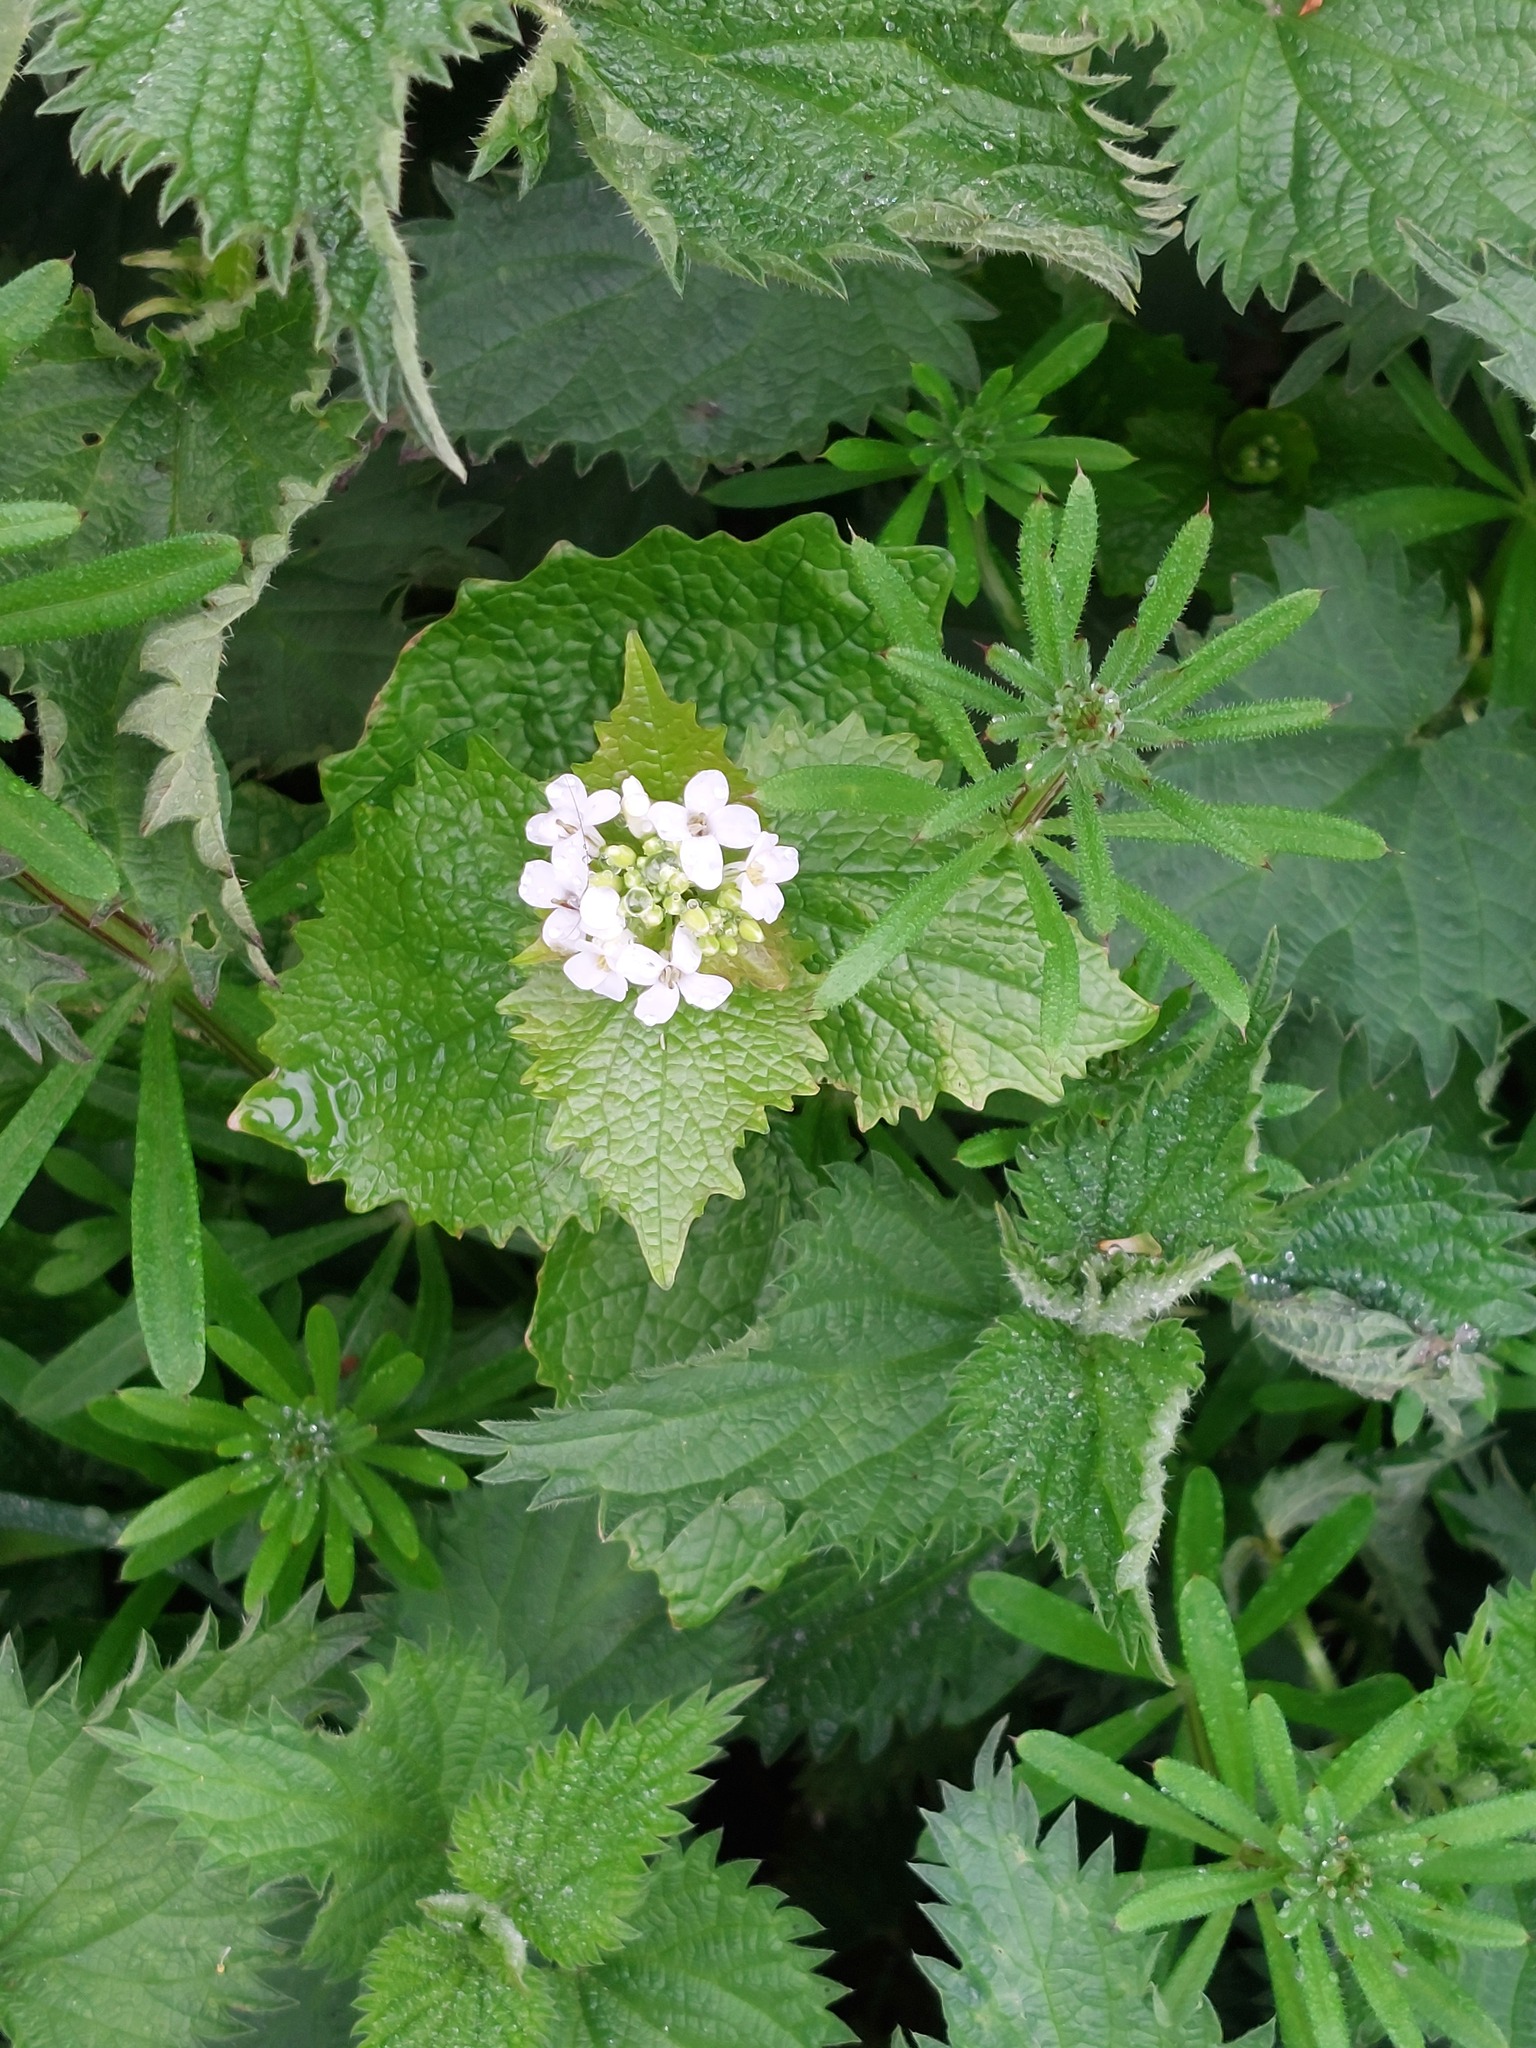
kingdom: Plantae
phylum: Tracheophyta
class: Magnoliopsida
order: Brassicales
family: Brassicaceae
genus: Alliaria
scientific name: Alliaria petiolata
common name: Garlic mustard
